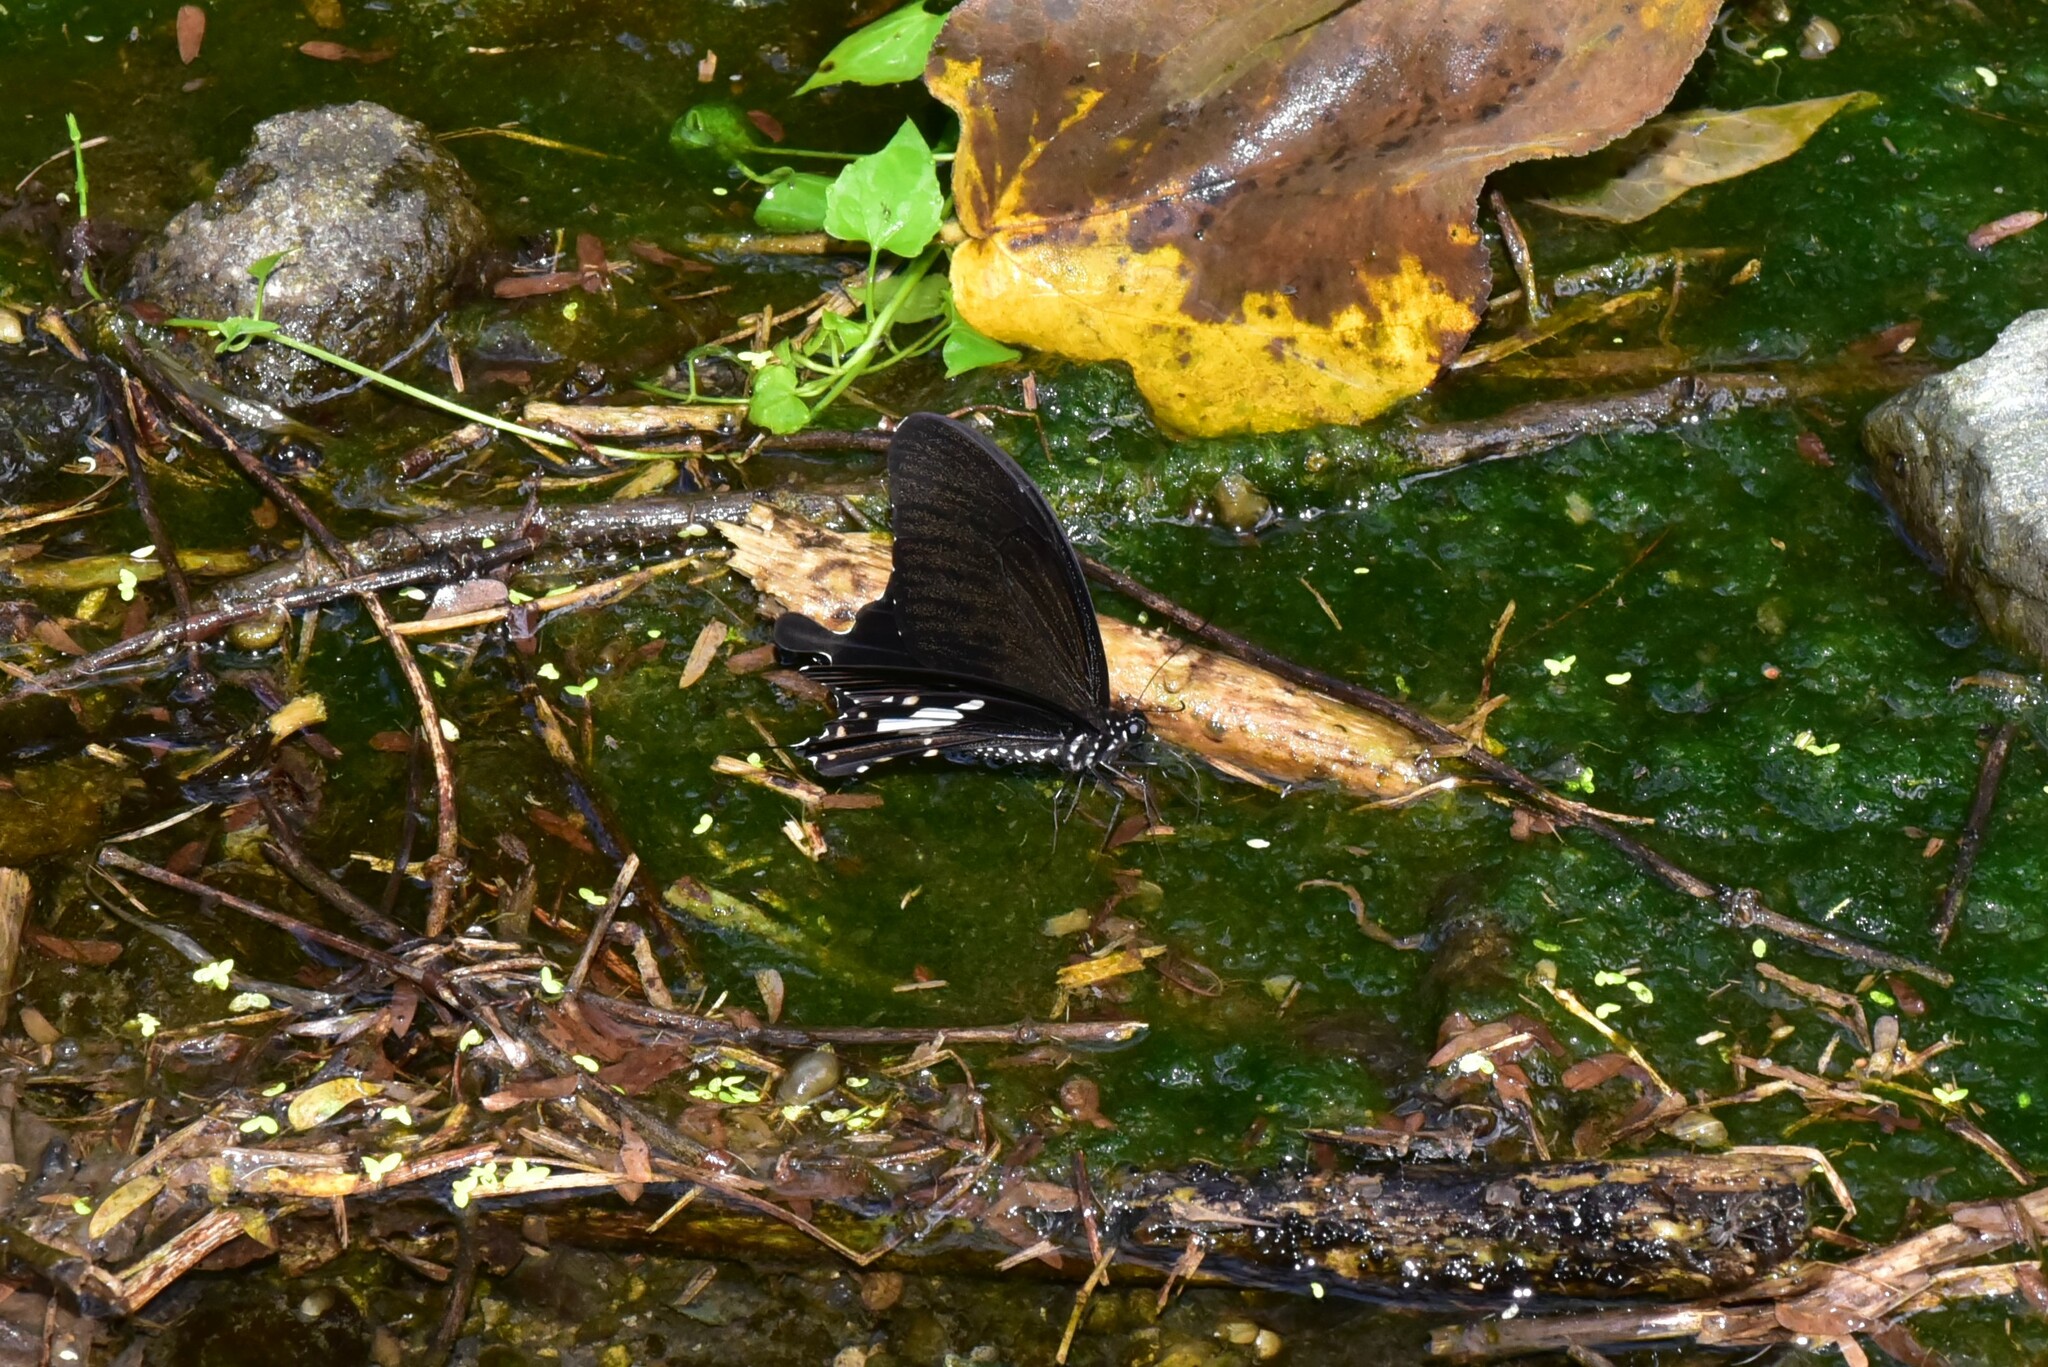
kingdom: Animalia
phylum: Arthropoda
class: Insecta
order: Lepidoptera
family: Papilionidae
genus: Papilio
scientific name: Papilio nephelus
